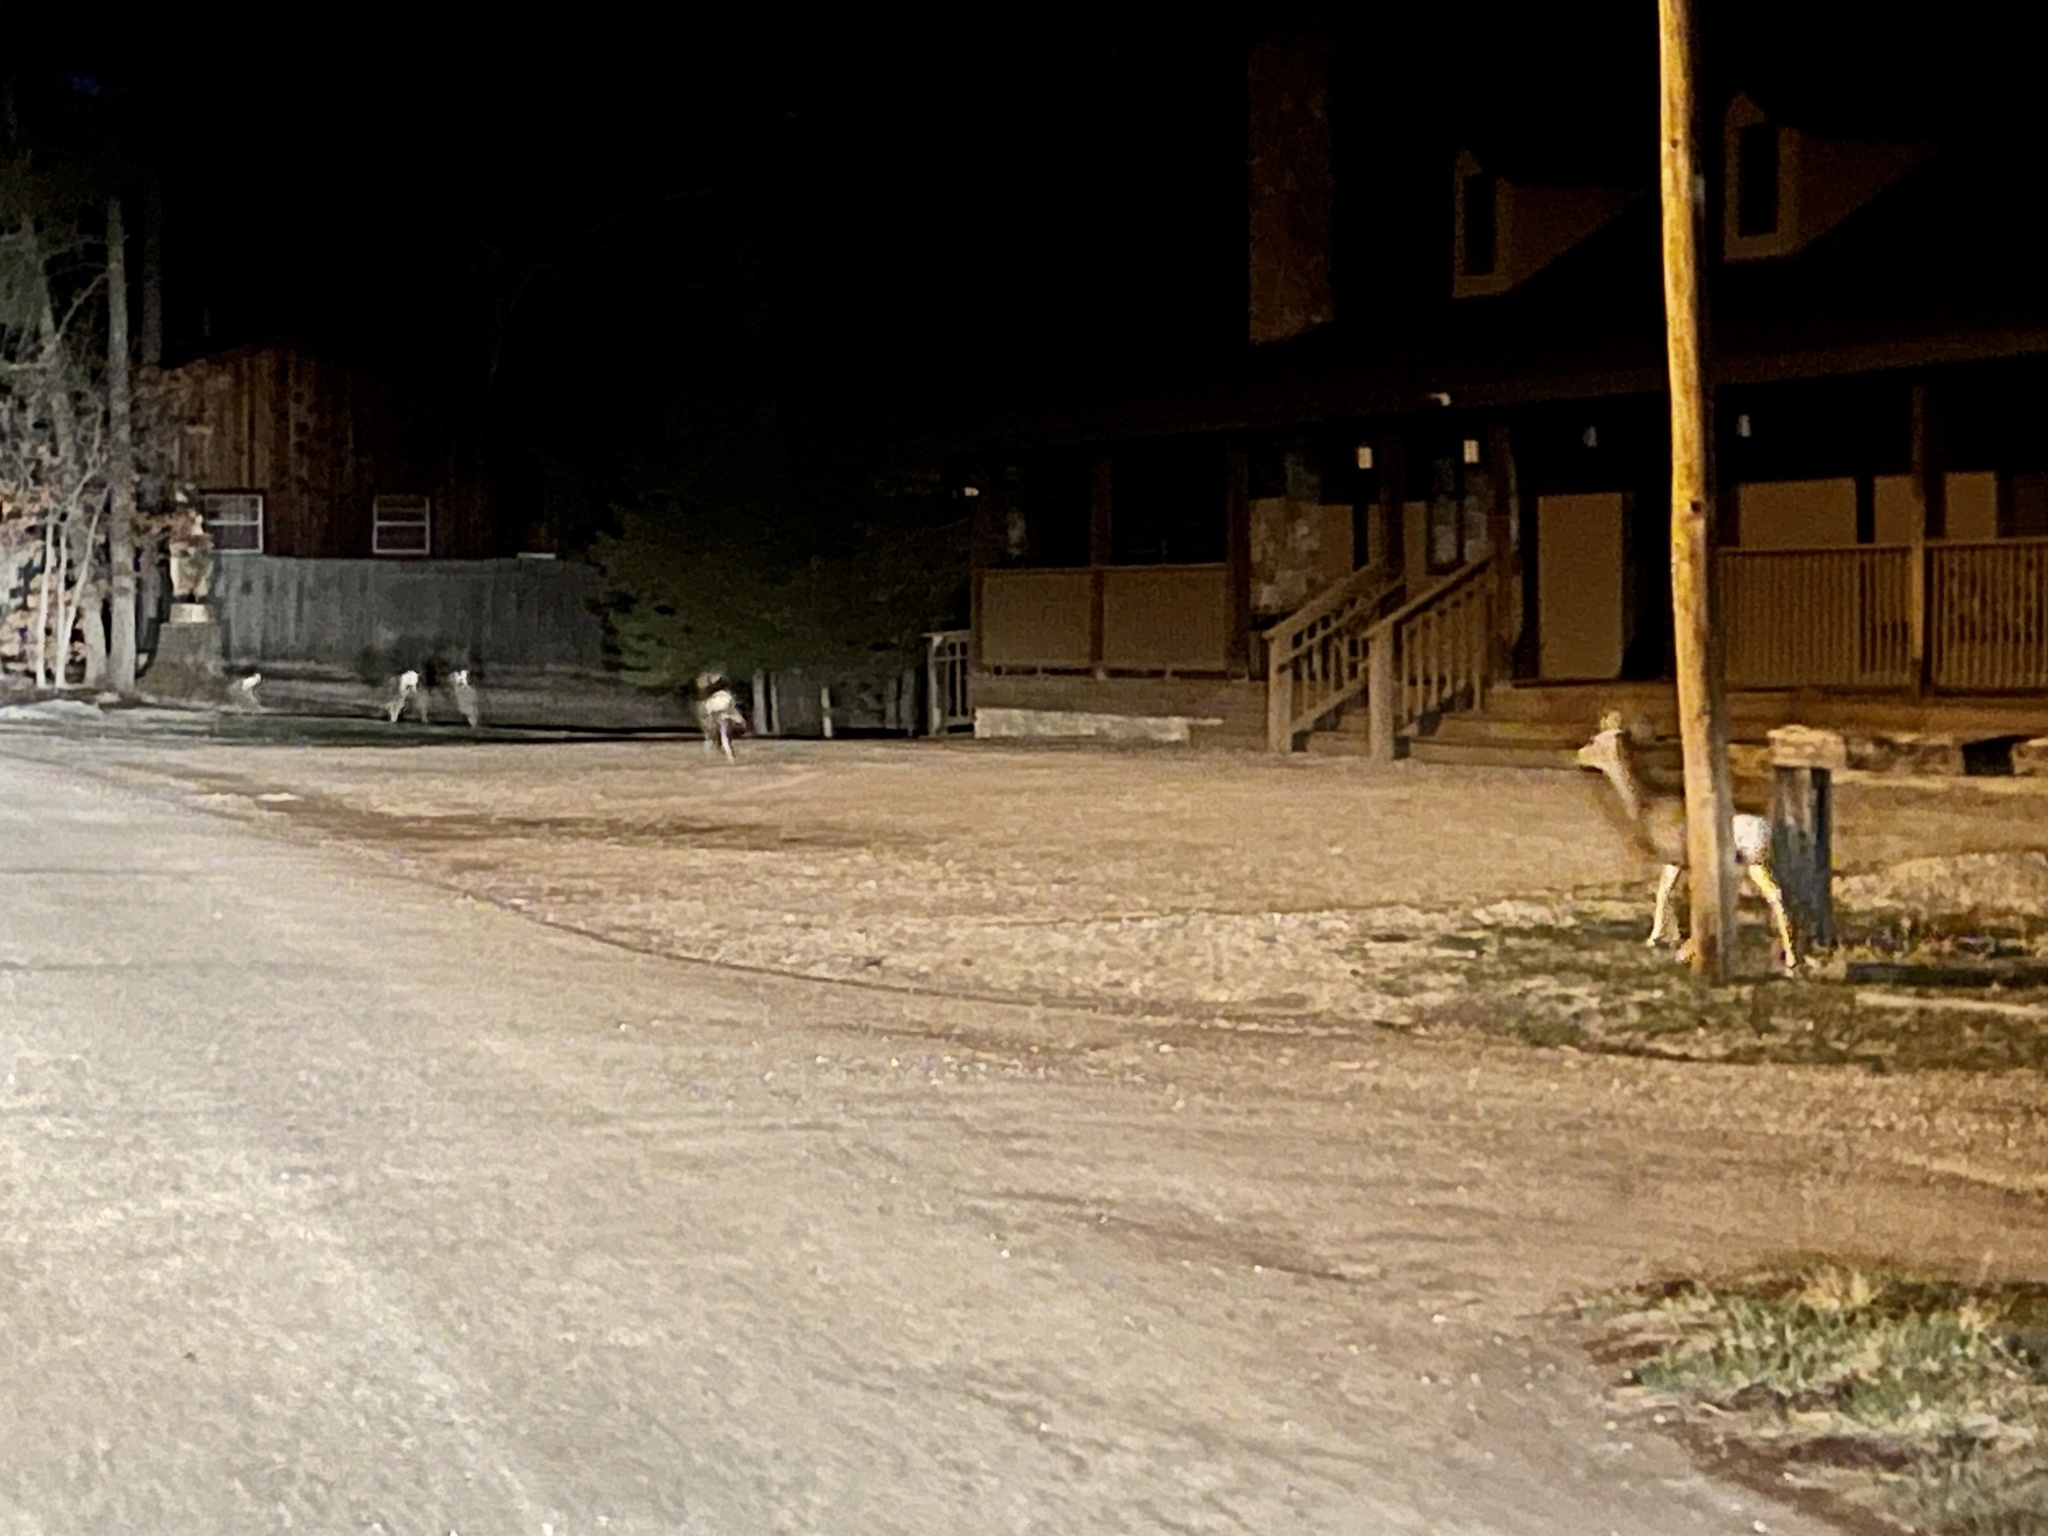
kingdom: Animalia
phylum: Chordata
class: Mammalia
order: Artiodactyla
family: Cervidae
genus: Odocoileus
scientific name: Odocoileus hemionus
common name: Mule deer
